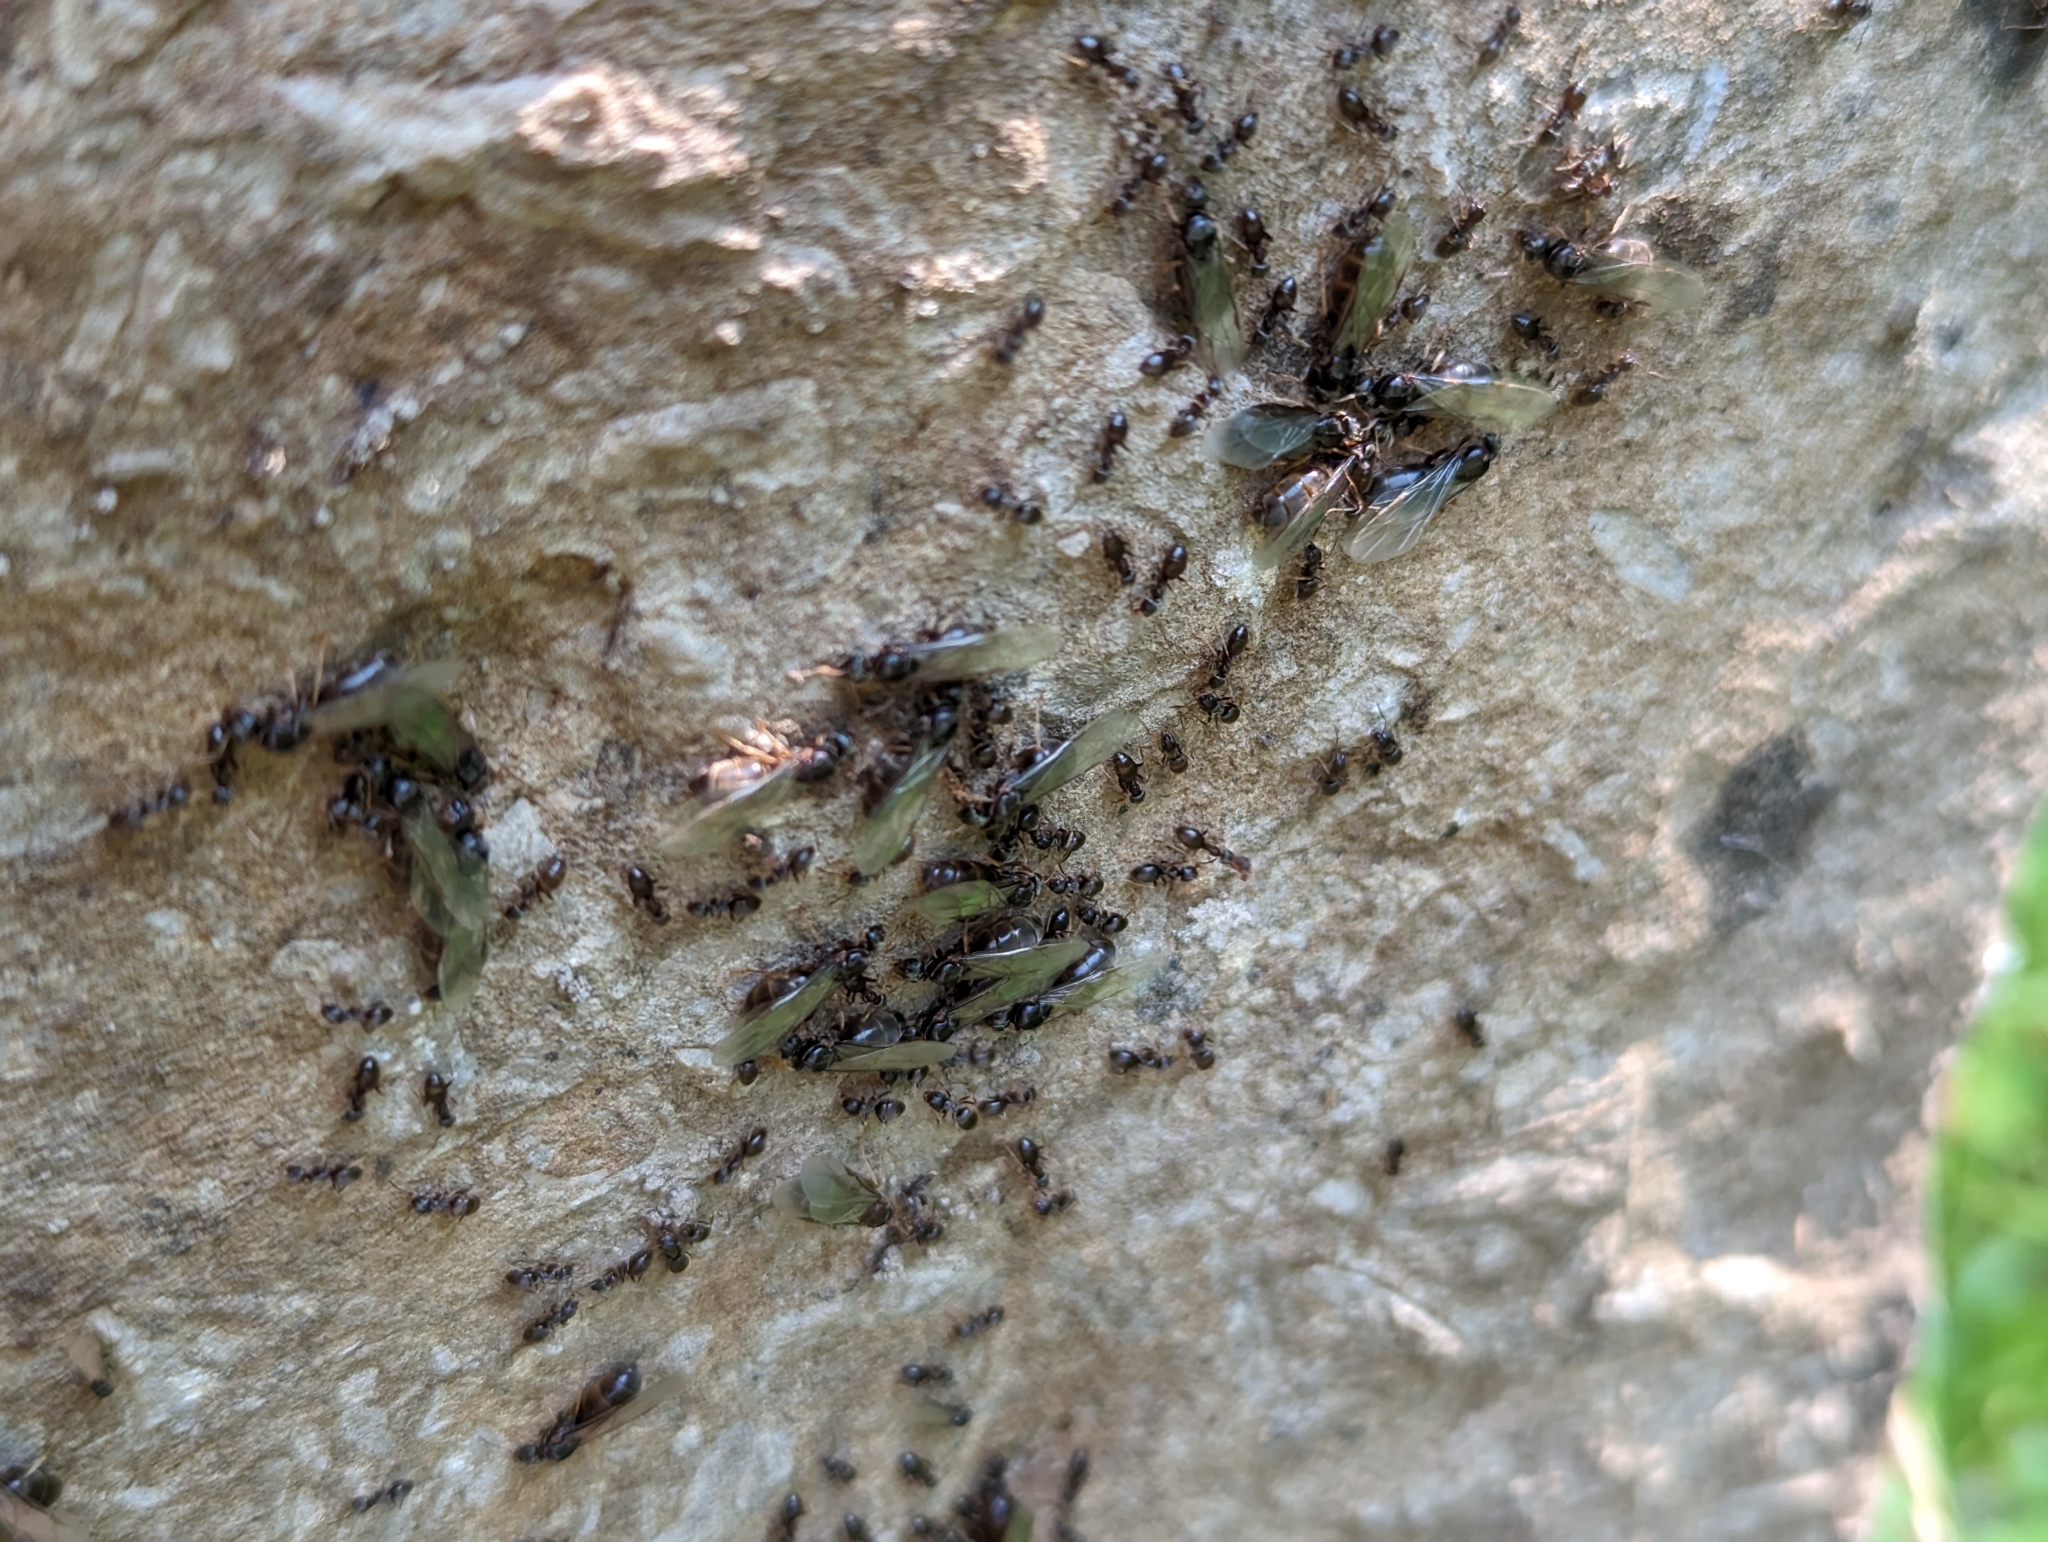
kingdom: Animalia
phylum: Arthropoda
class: Insecta
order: Hymenoptera
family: Formicidae
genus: Tapinoma
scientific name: Tapinoma sessile
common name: Odorous house ant
